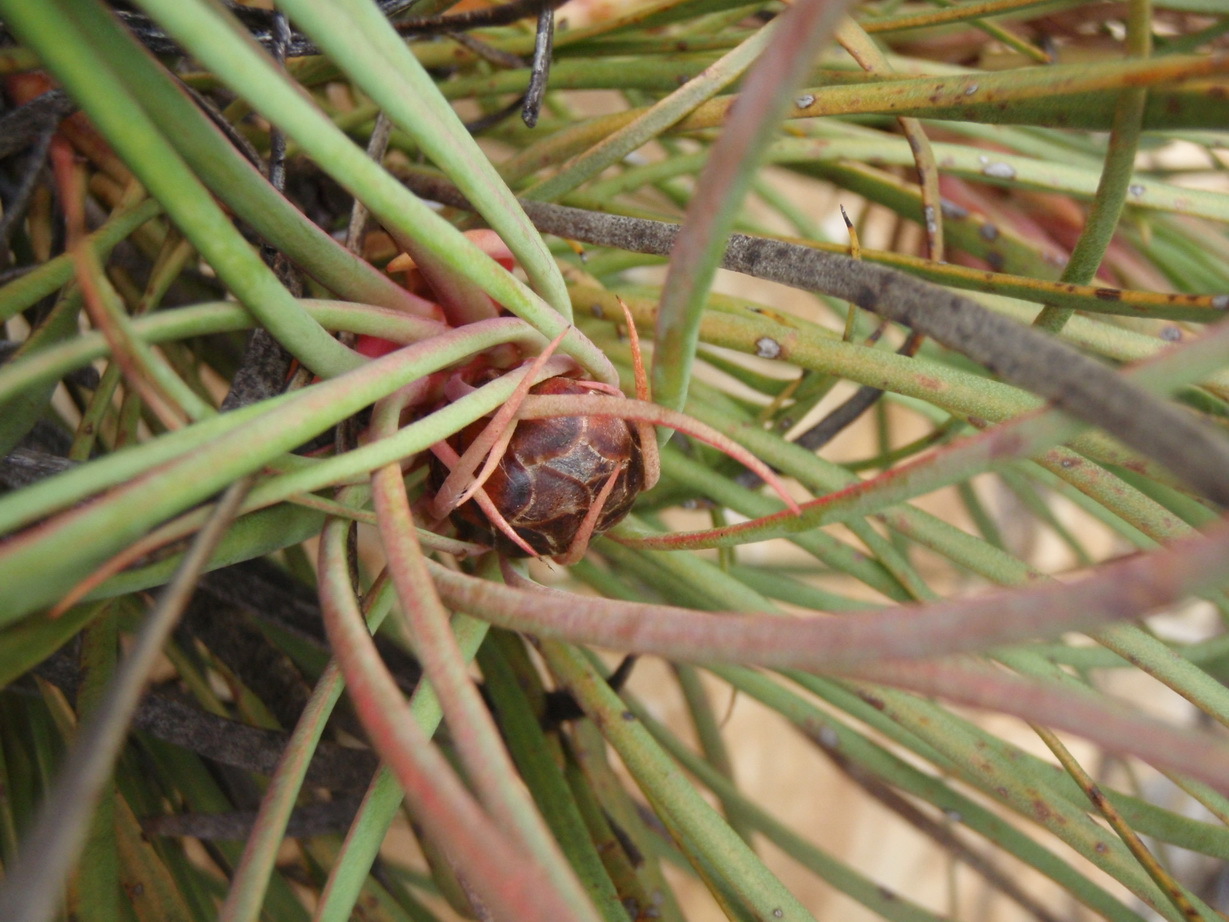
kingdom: Plantae
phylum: Tracheophyta
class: Magnoliopsida
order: Proteales
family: Proteaceae
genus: Protea
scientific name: Protea montana
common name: Swartberg sugarbush
